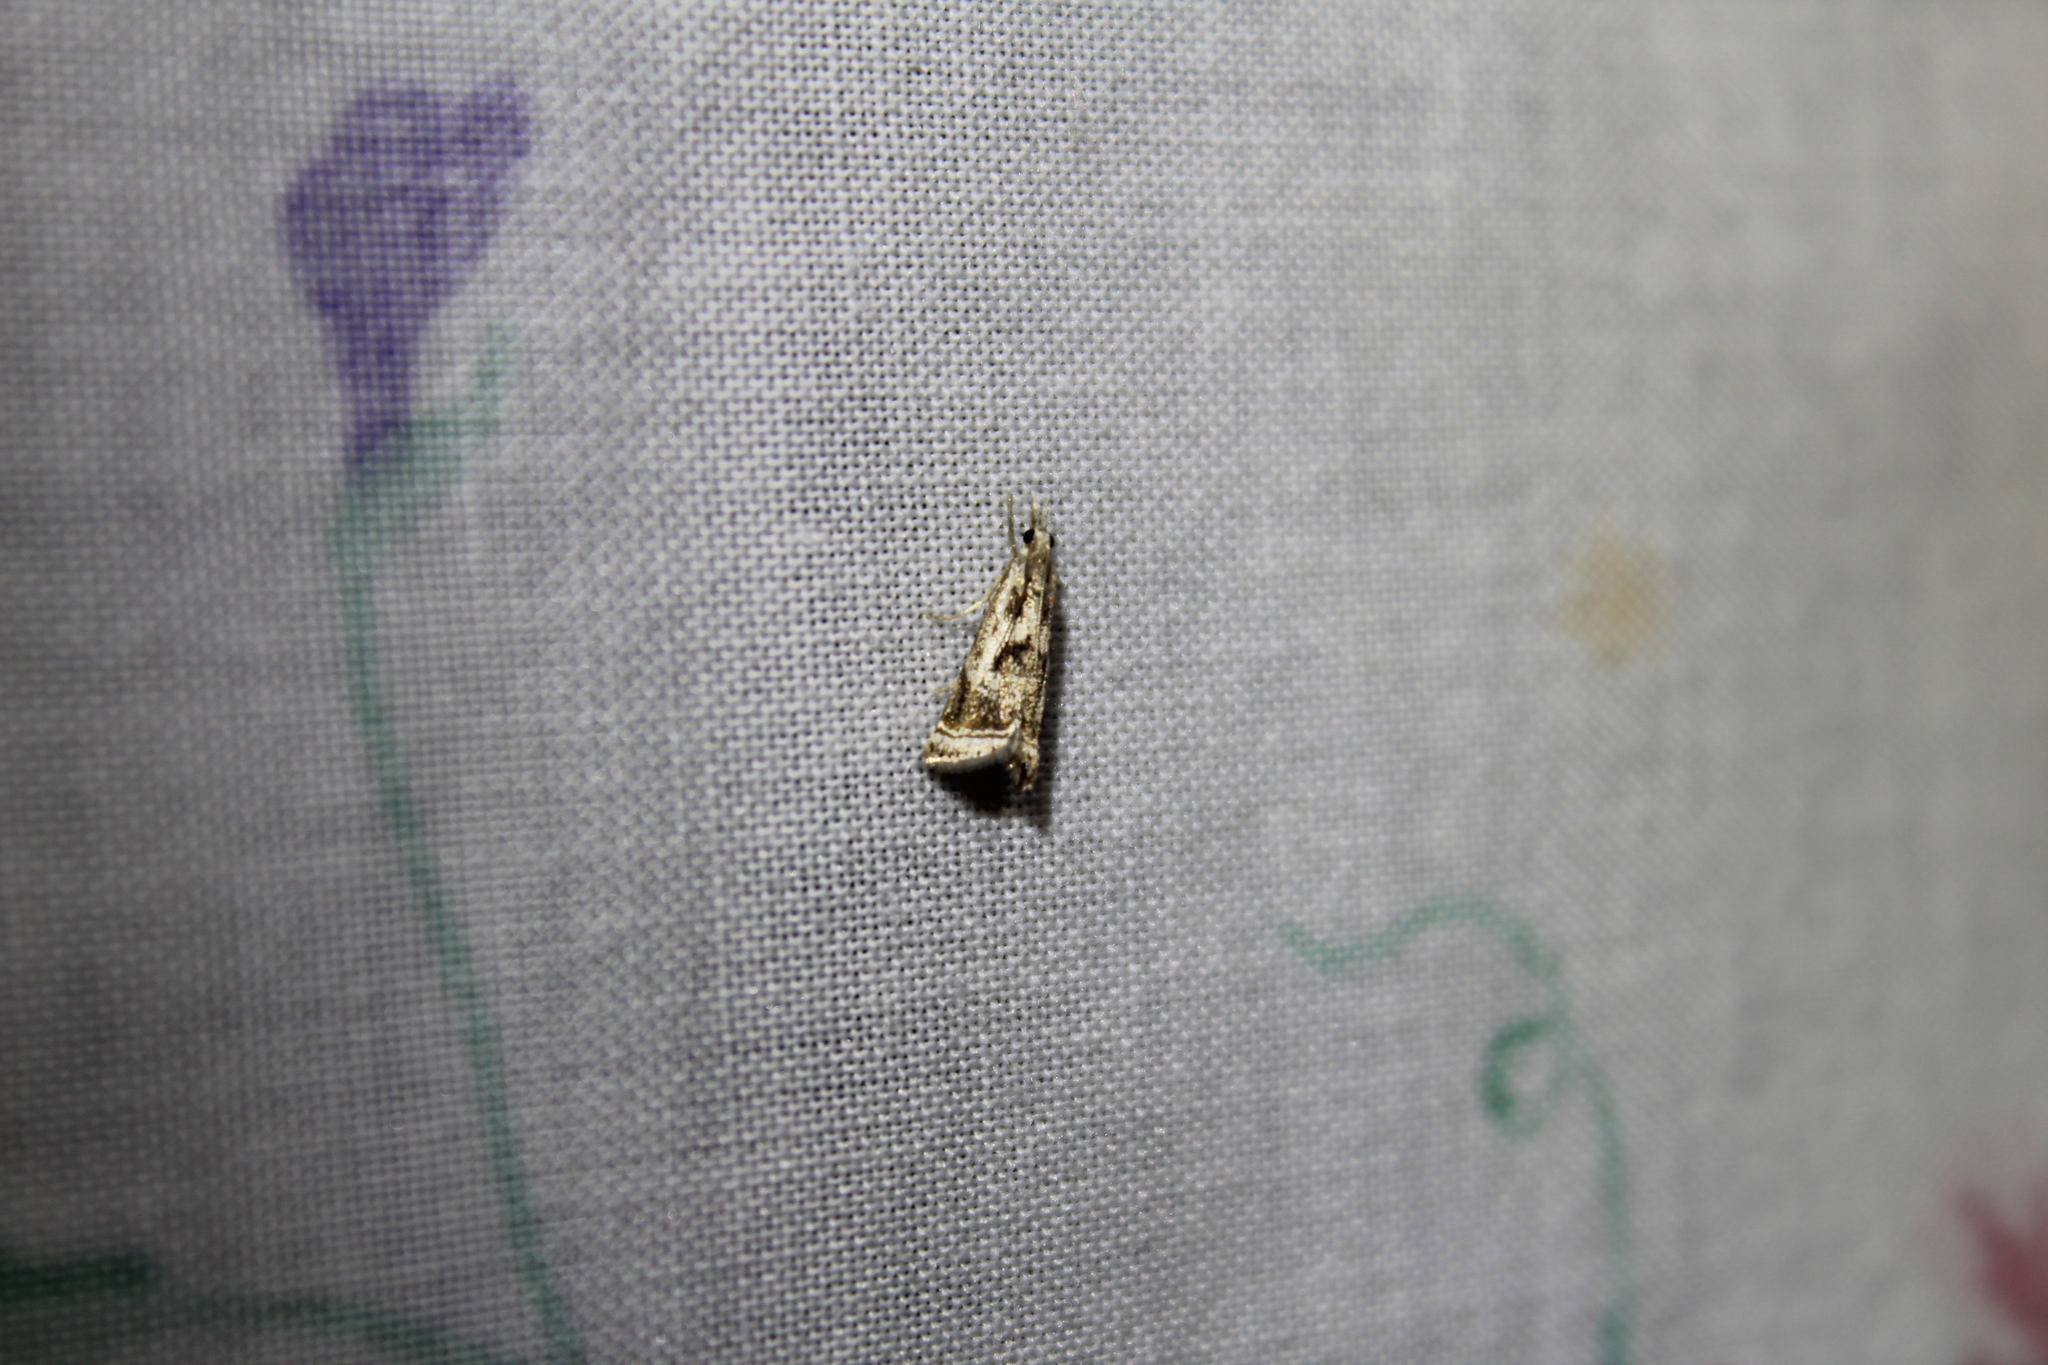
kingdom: Animalia
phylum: Arthropoda
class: Insecta
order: Lepidoptera
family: Crambidae
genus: Microcrambus
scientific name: Microcrambus elegans
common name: Elegant grass-veneer
